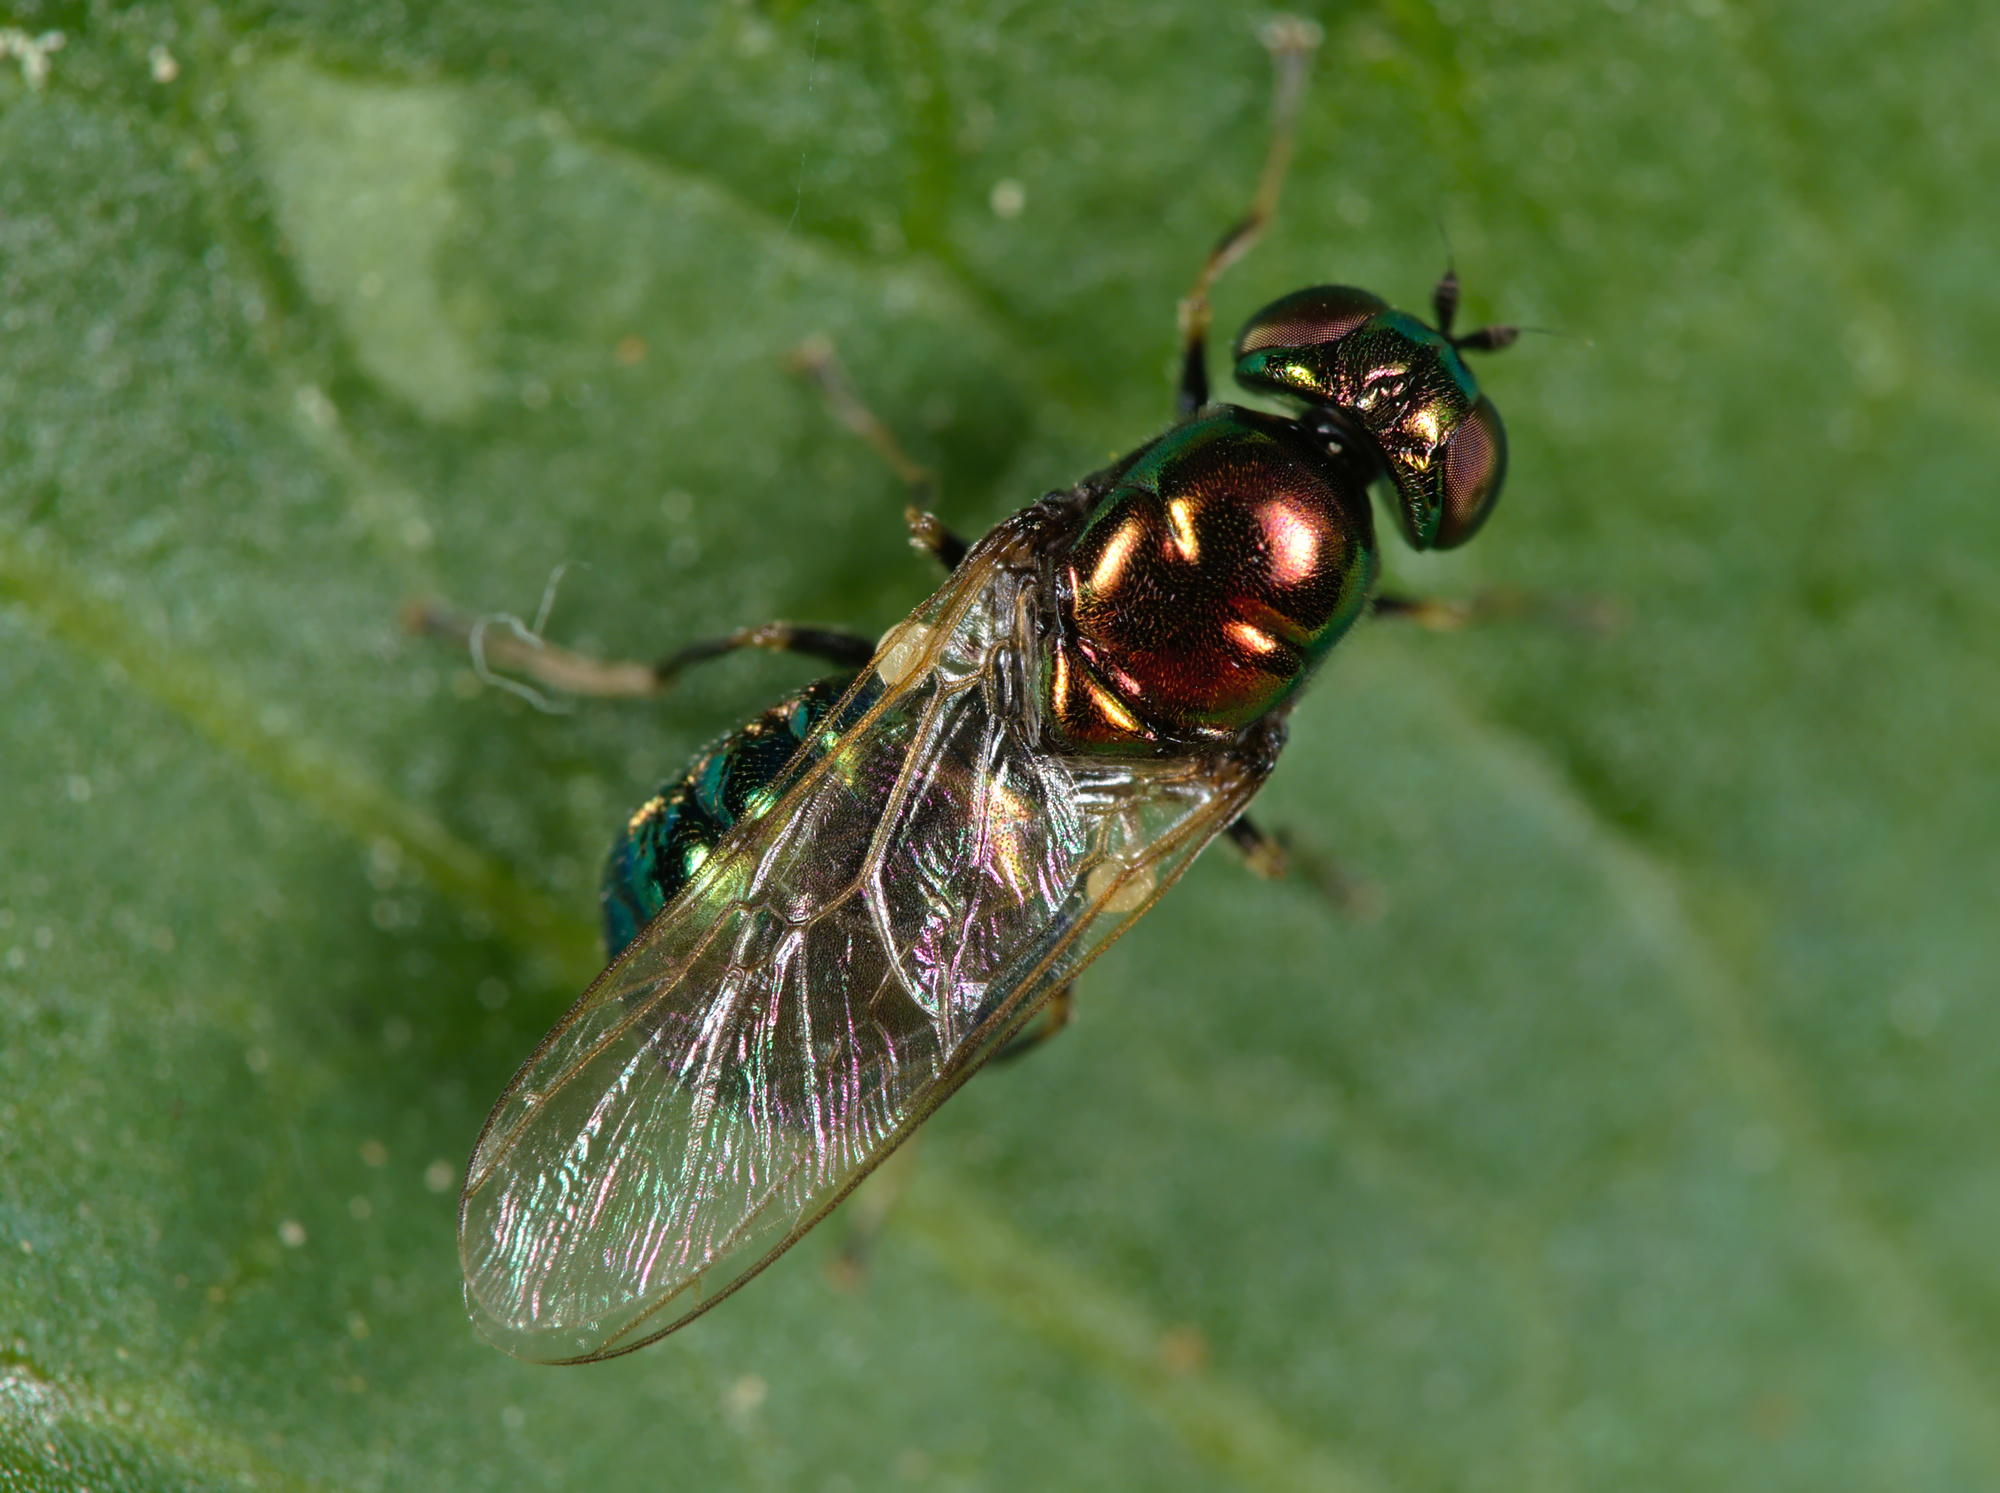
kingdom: Animalia
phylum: Arthropoda
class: Insecta
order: Diptera
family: Stratiomyidae
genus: Microchrysa
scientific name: Microchrysa polita
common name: Black-horned gem
